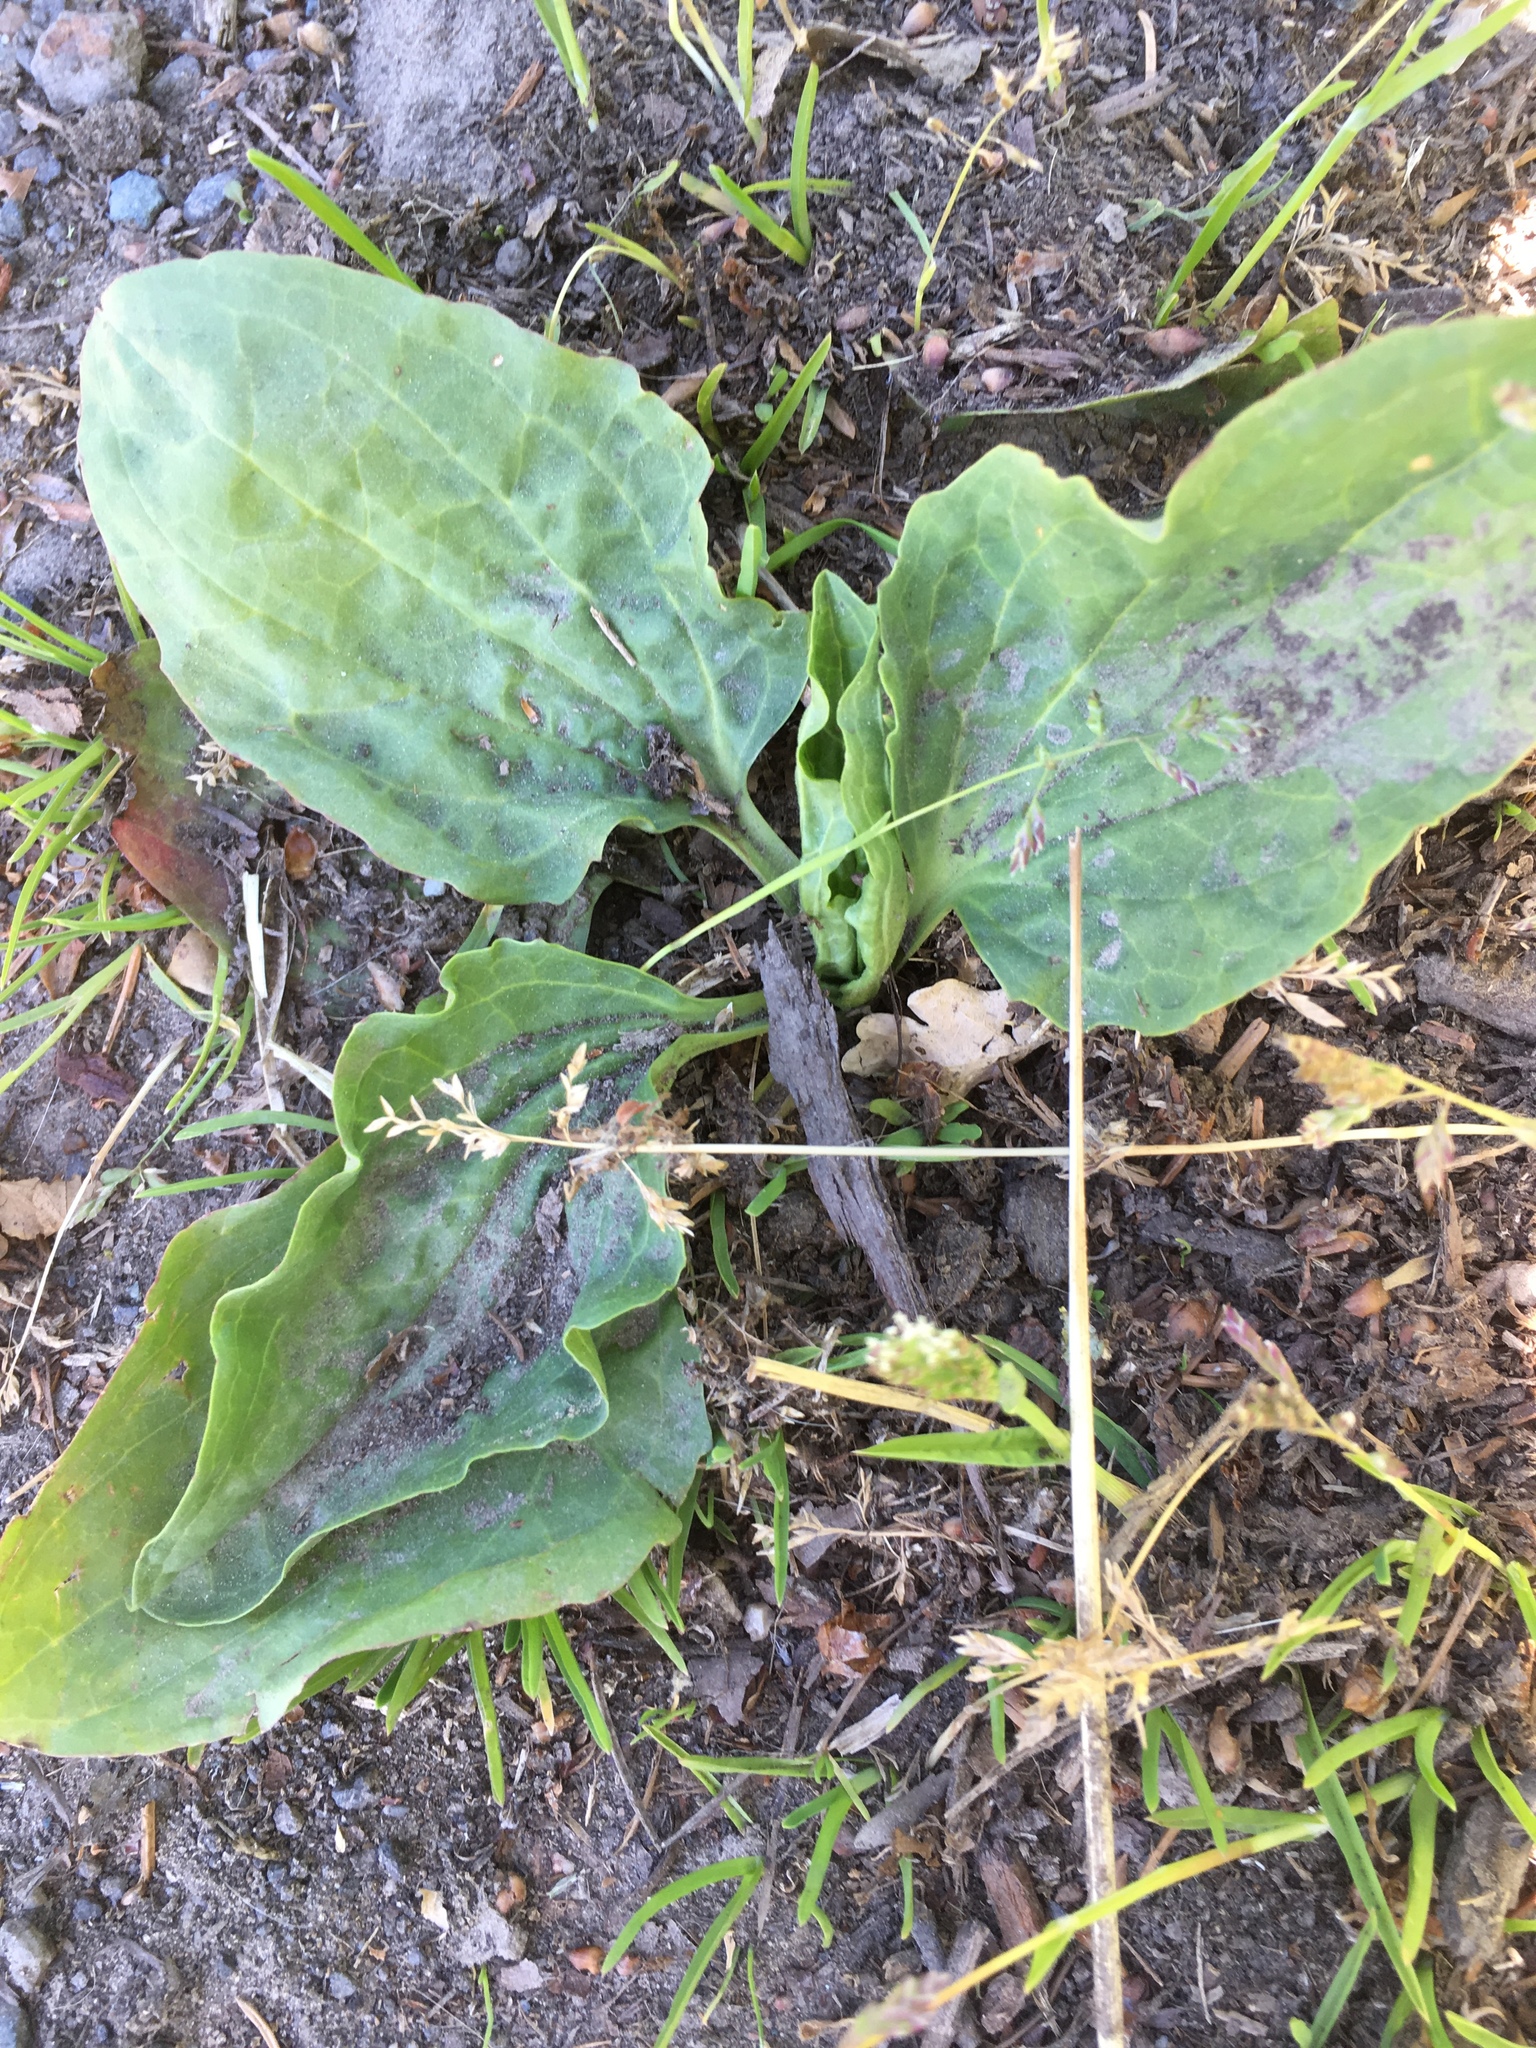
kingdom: Plantae
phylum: Tracheophyta
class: Magnoliopsida
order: Lamiales
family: Plantaginaceae
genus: Plantago
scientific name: Plantago major
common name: Common plantain
